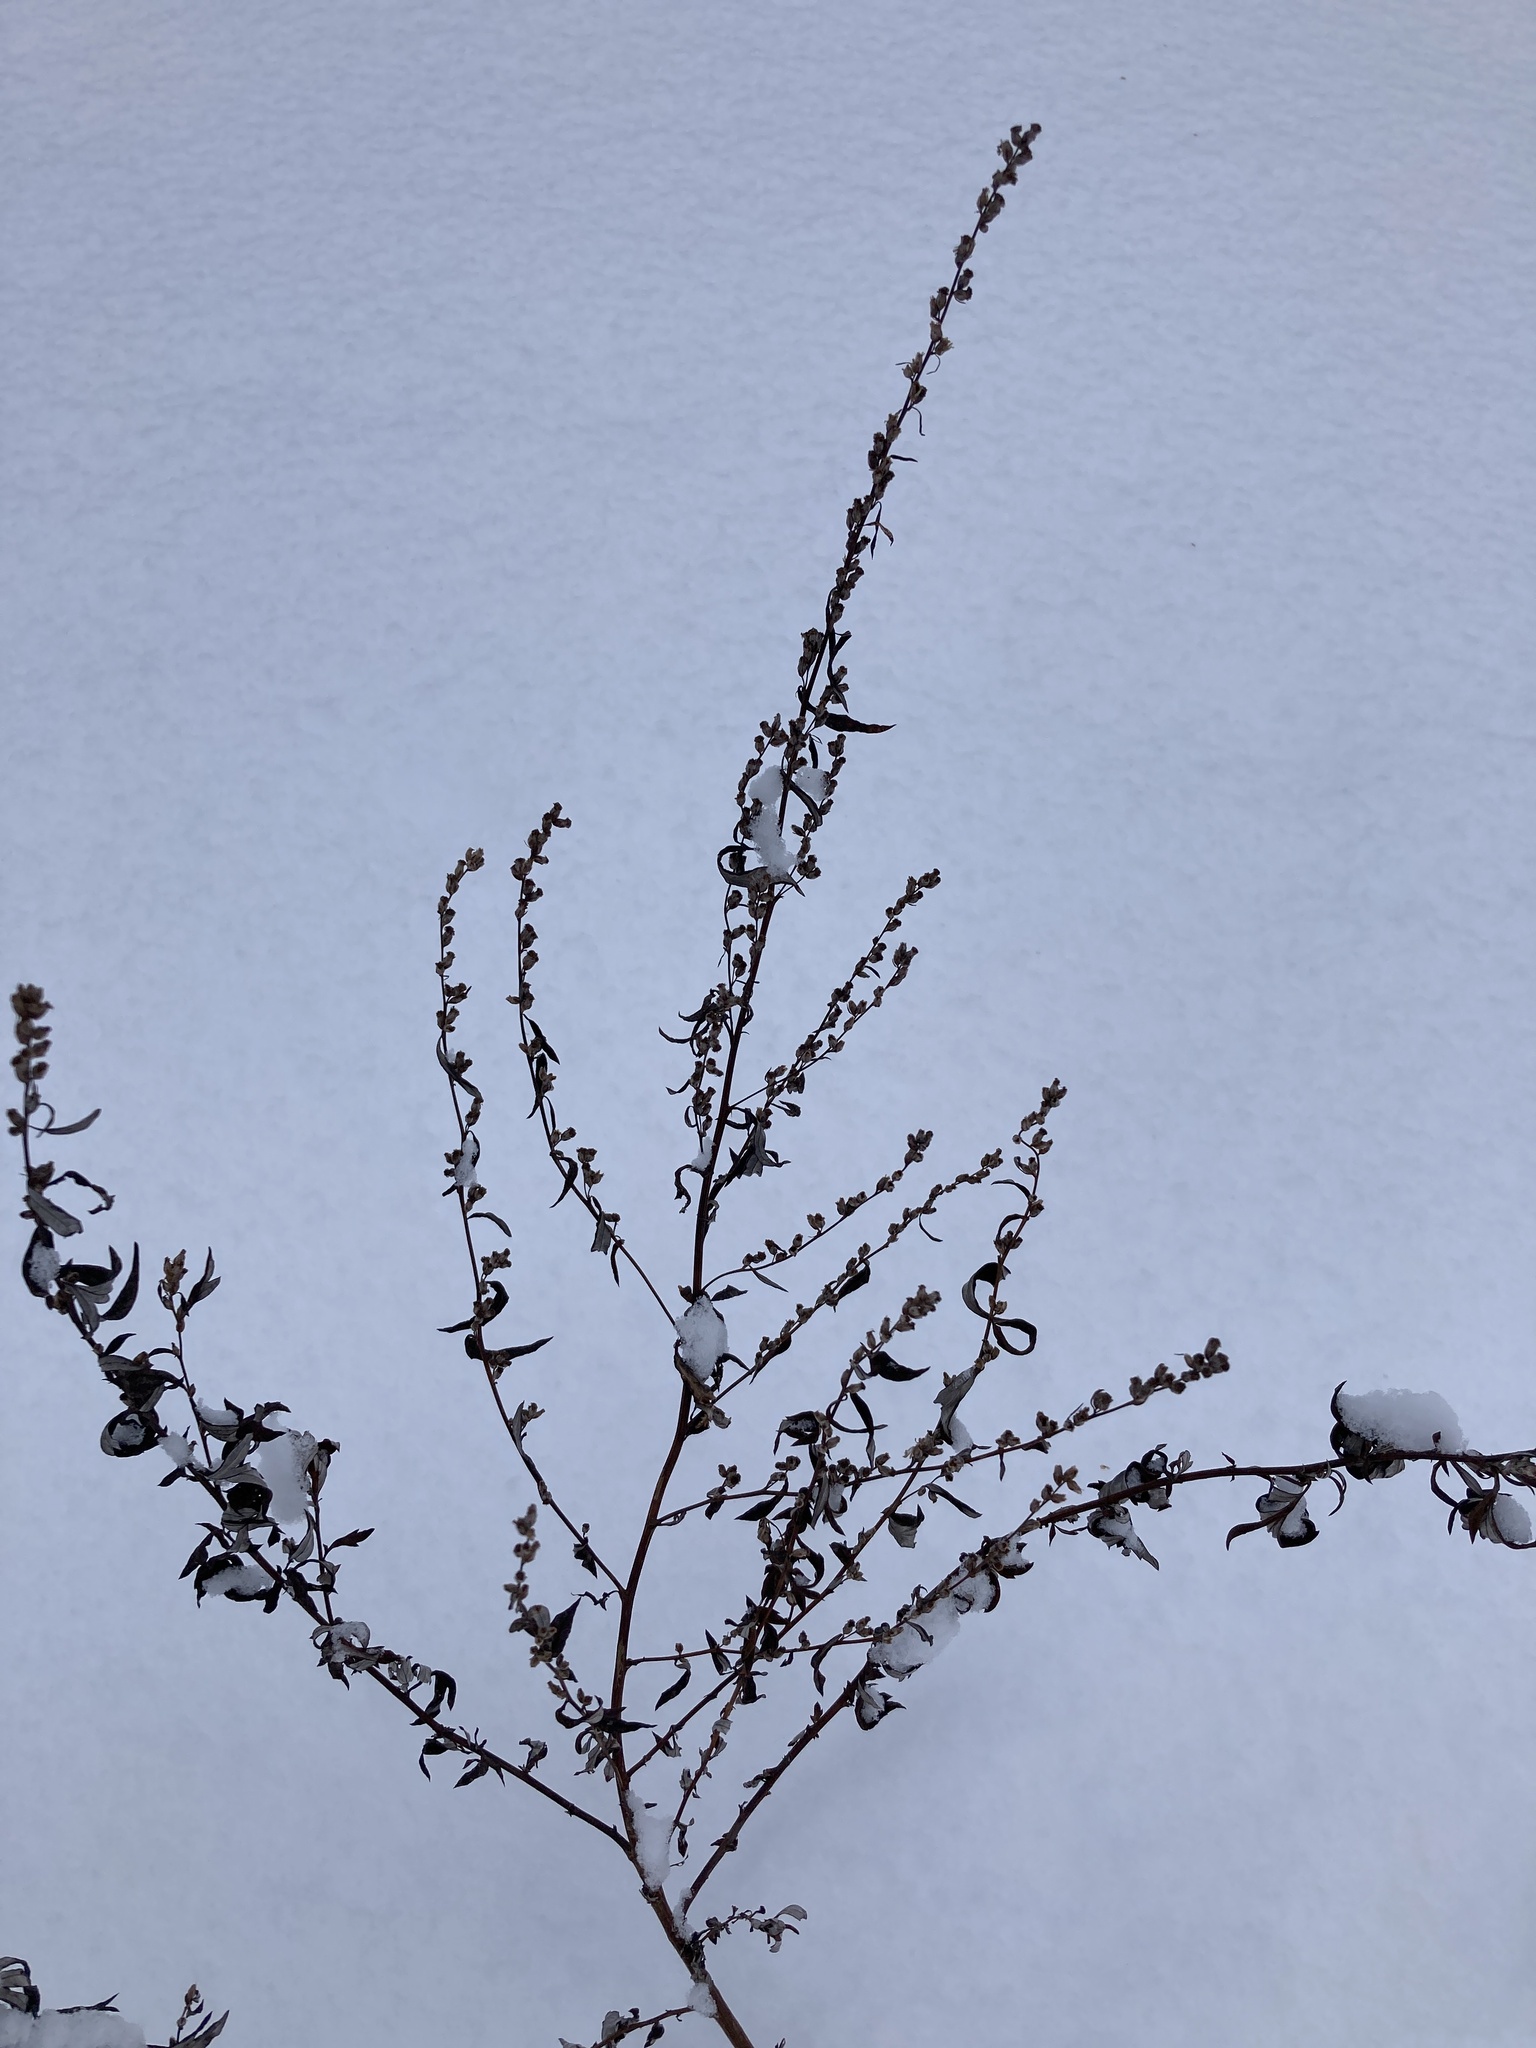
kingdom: Plantae
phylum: Tracheophyta
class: Magnoliopsida
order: Asterales
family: Asteraceae
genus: Artemisia
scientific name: Artemisia vulgaris
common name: Mugwort
